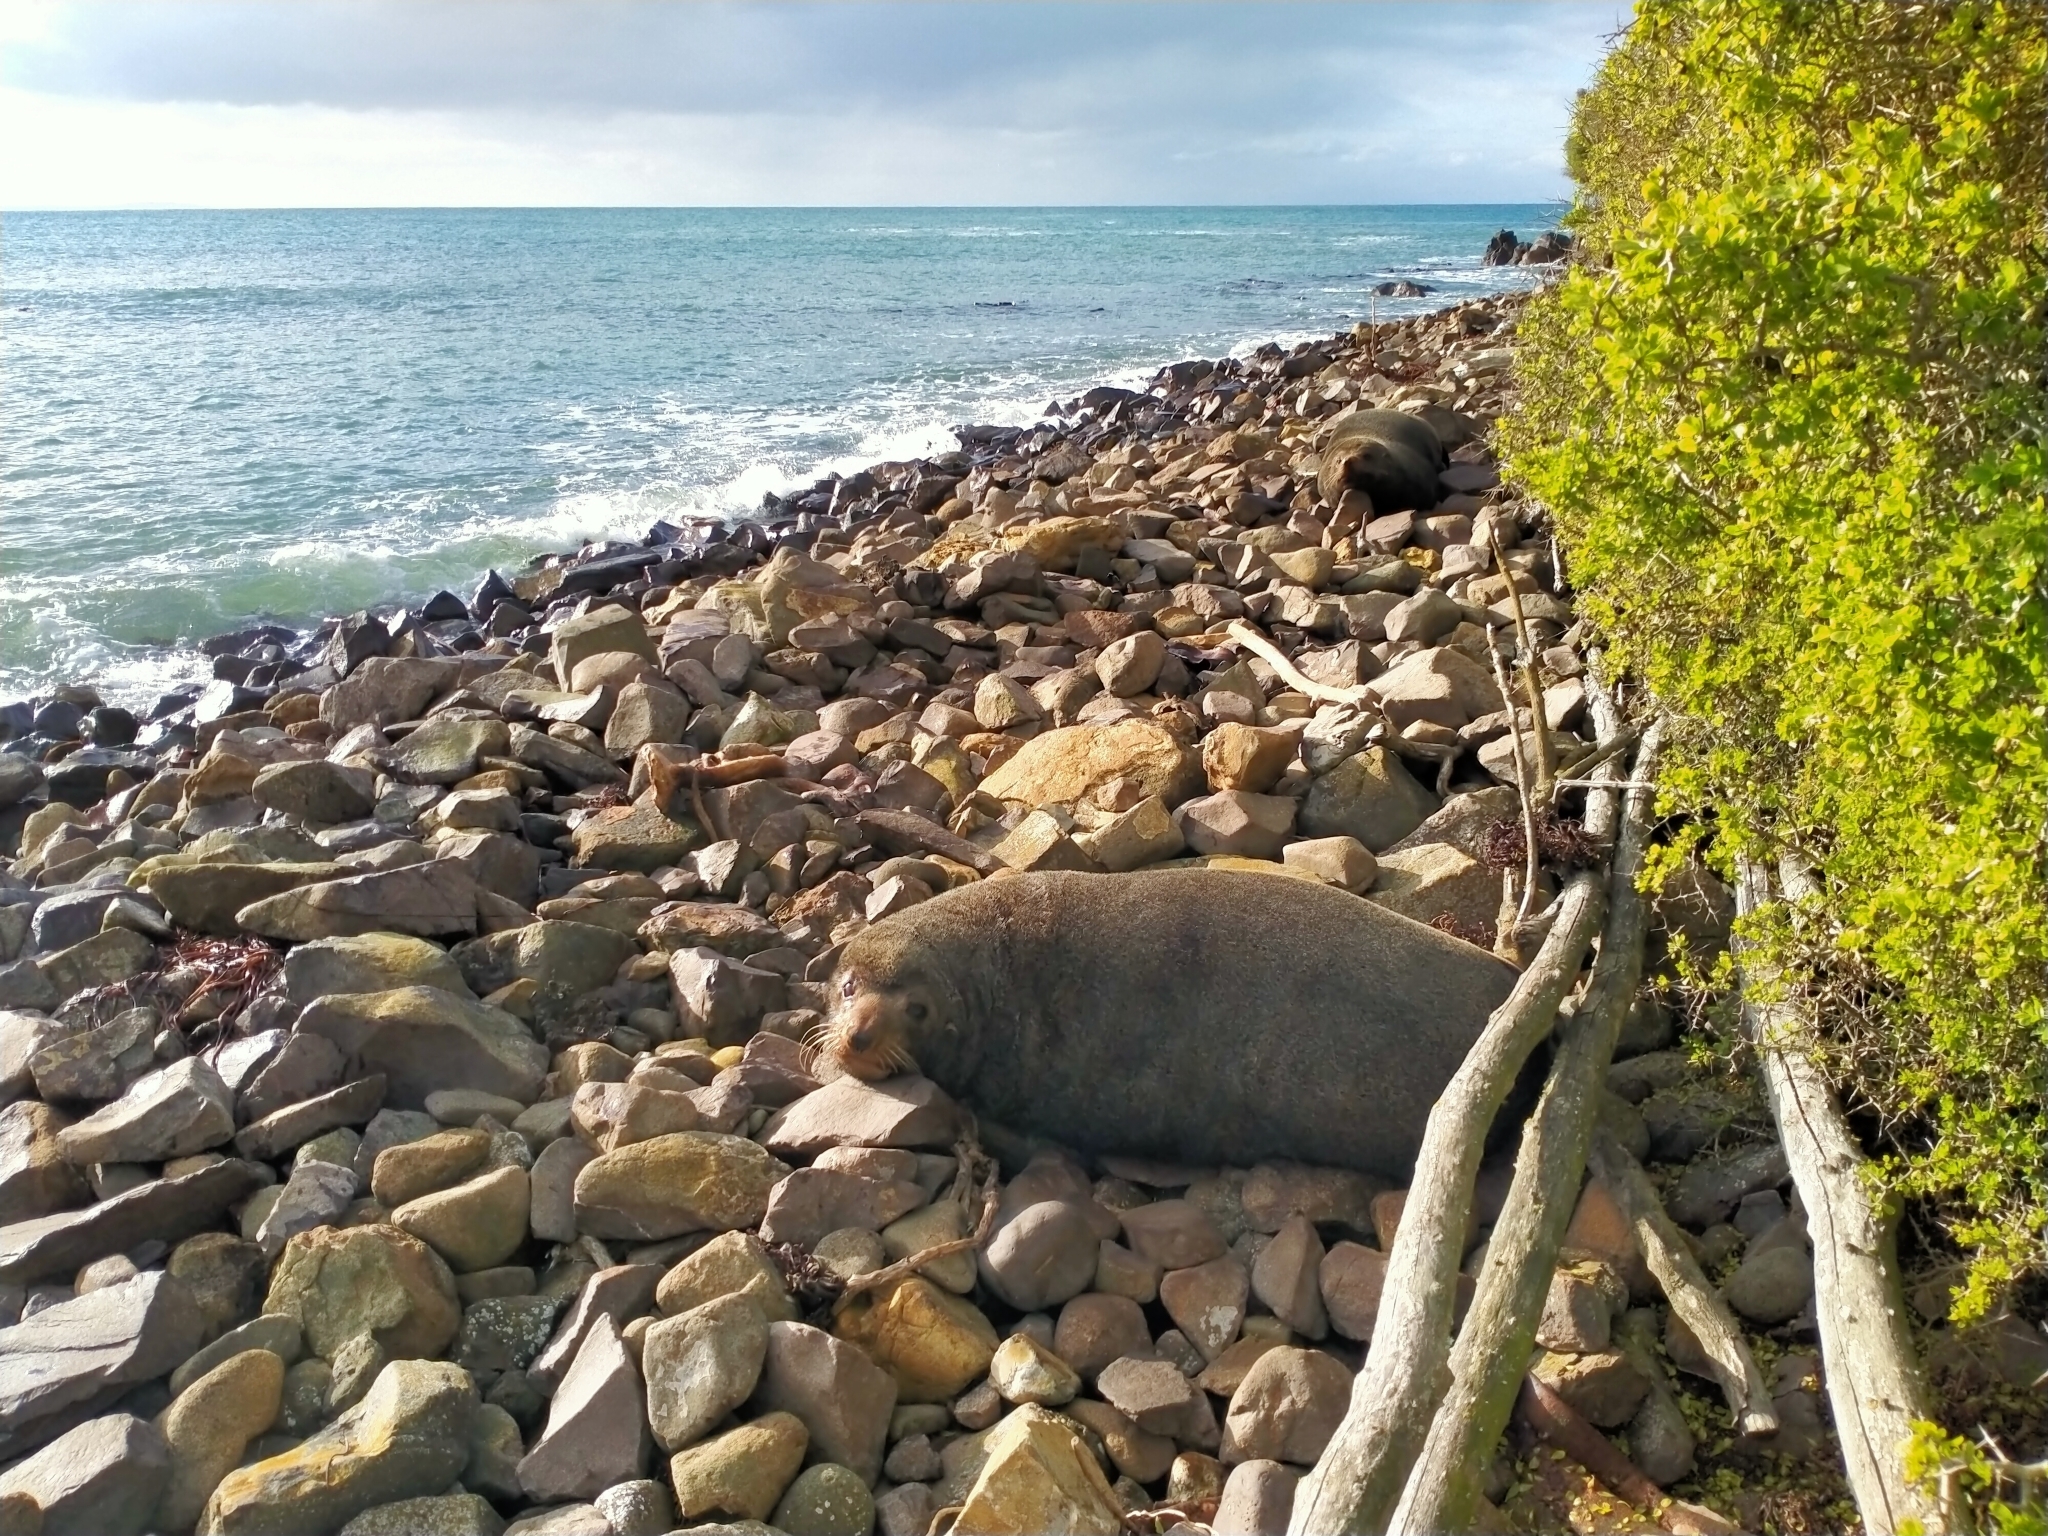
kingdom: Animalia
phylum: Chordata
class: Mammalia
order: Carnivora
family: Otariidae
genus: Arctocephalus
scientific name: Arctocephalus forsteri
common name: New zealand fur seal
